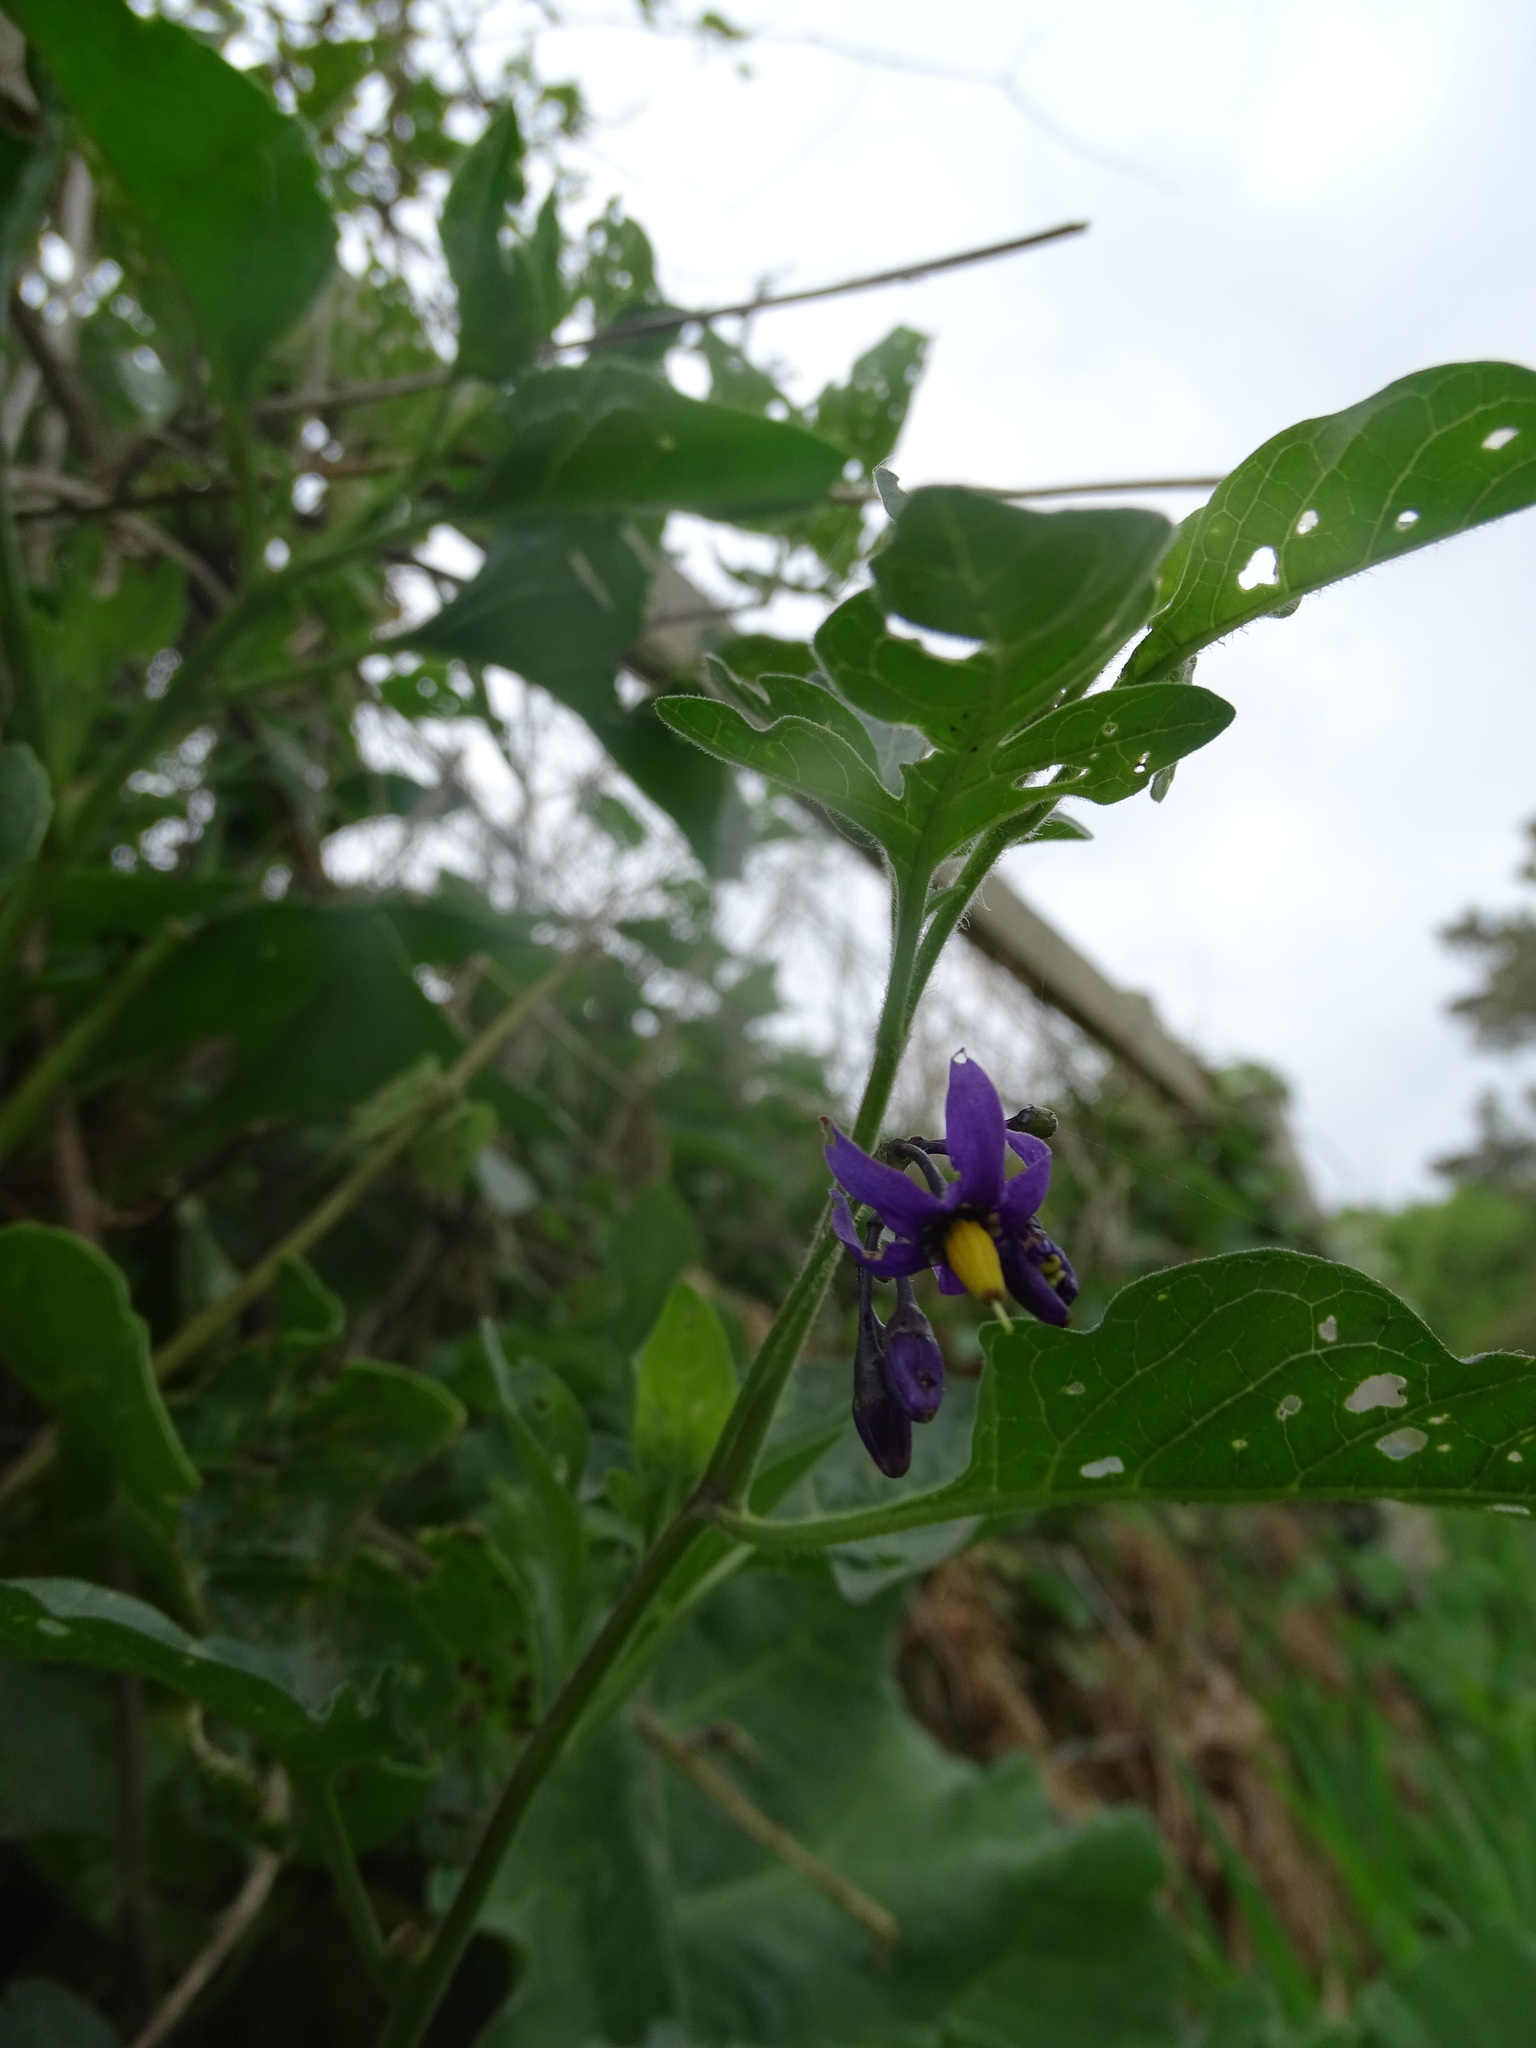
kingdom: Plantae
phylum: Tracheophyta
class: Magnoliopsida
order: Solanales
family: Solanaceae
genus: Solanum
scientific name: Solanum dulcamara
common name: Climbing nightshade
